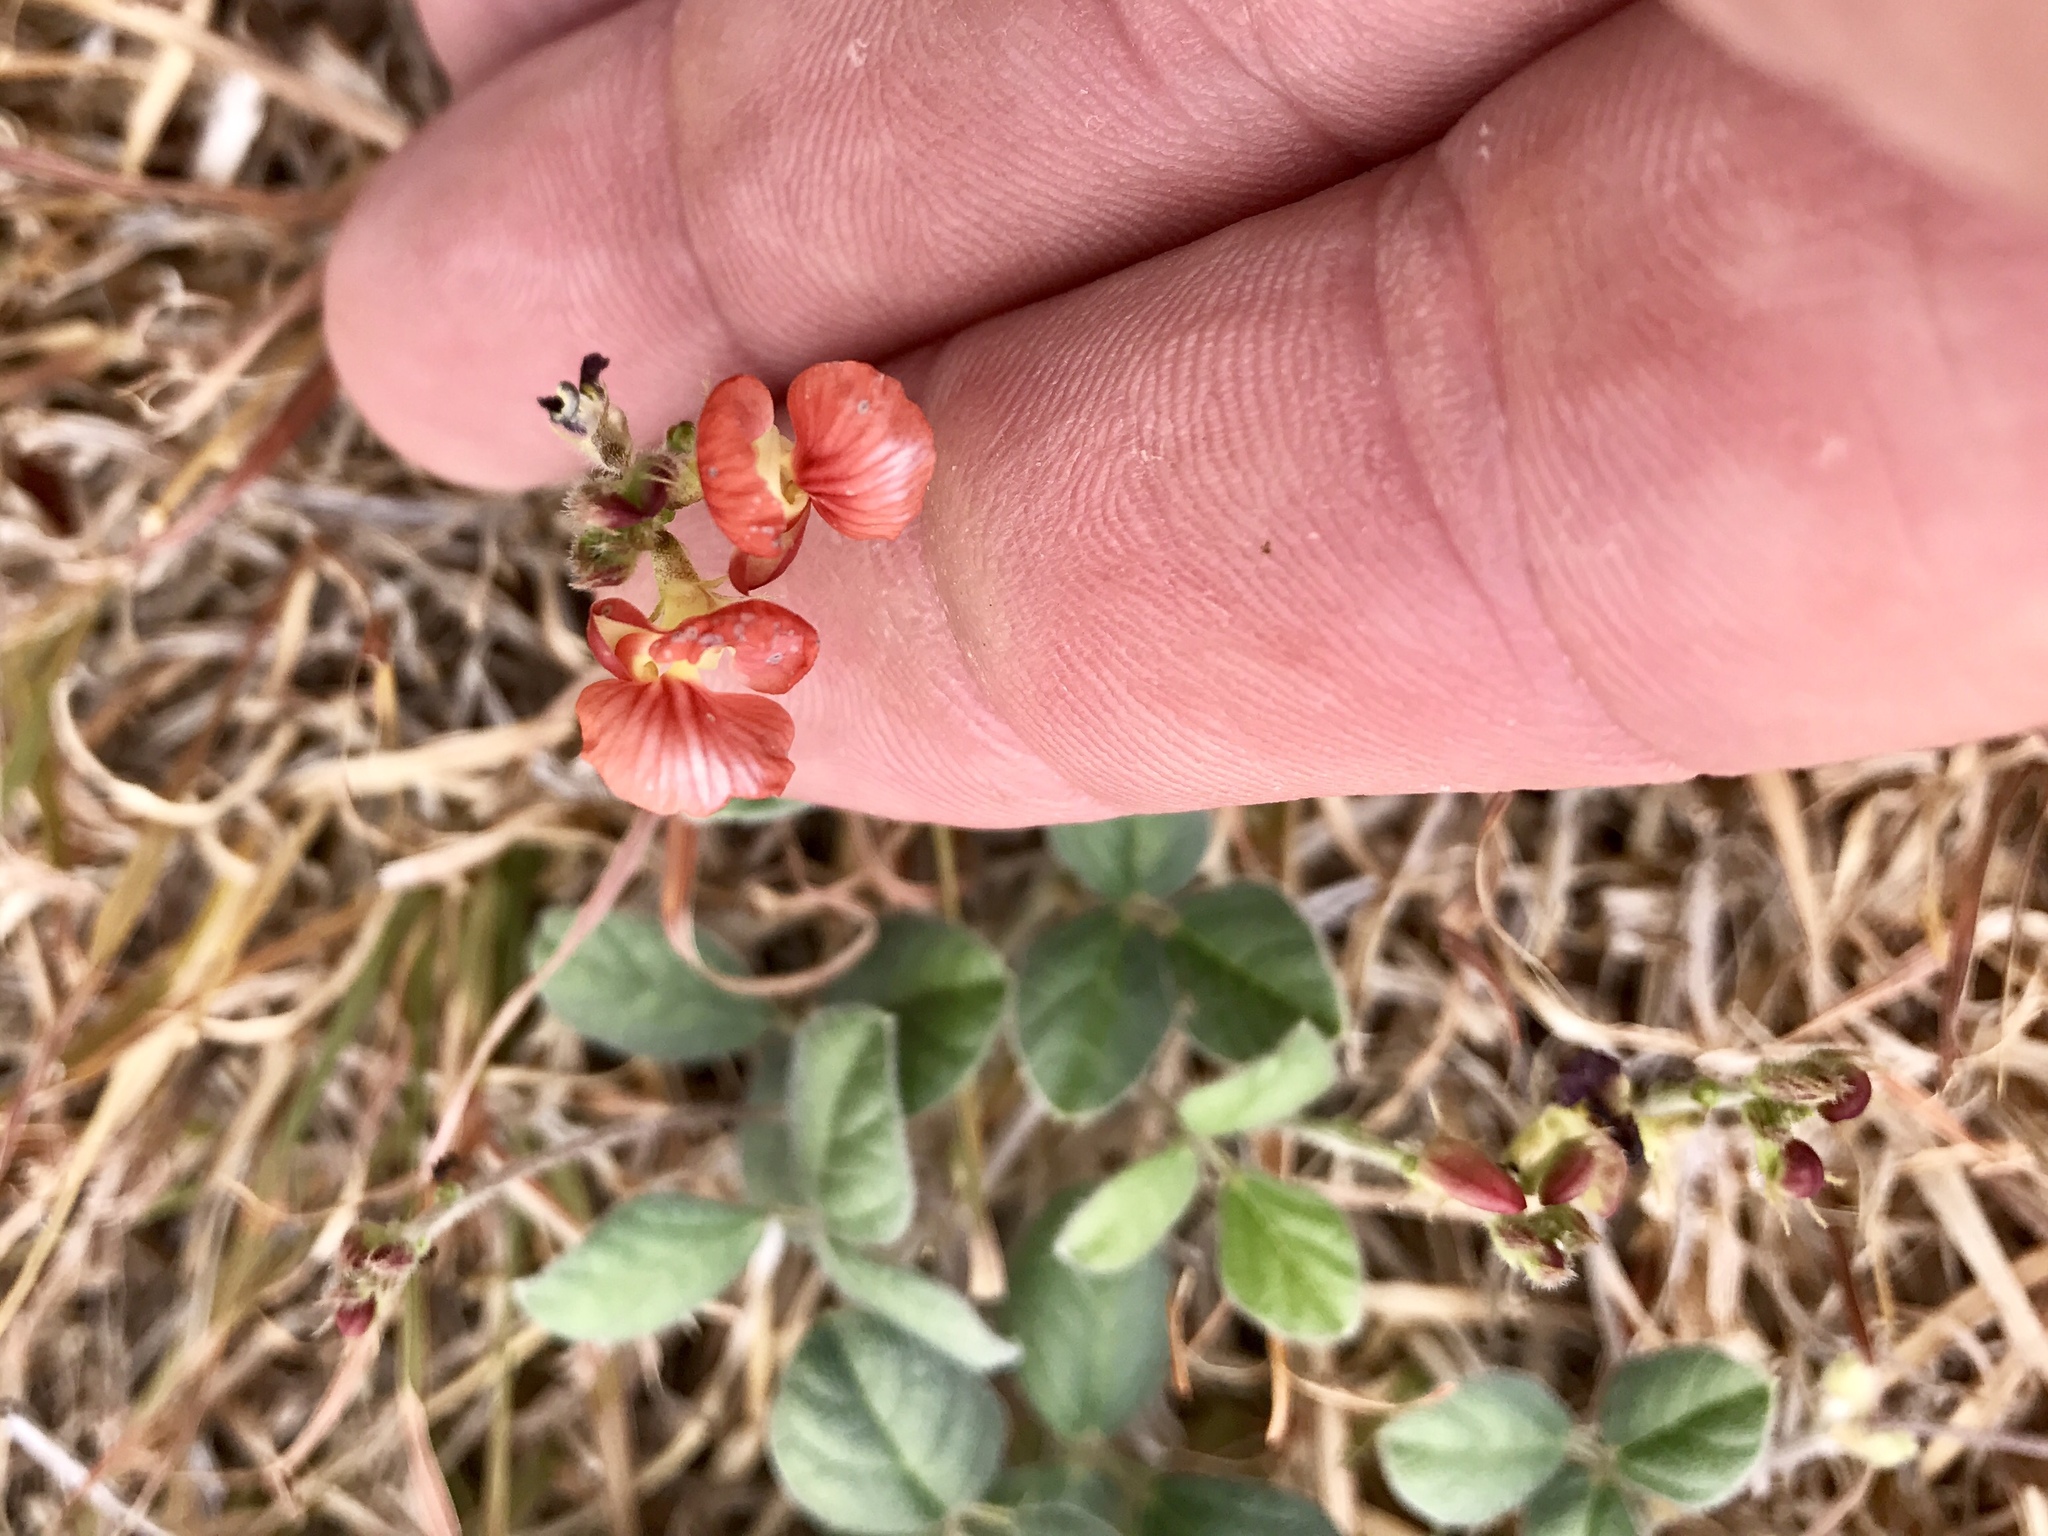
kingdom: Plantae
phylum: Tracheophyta
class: Magnoliopsida
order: Fabales
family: Fabaceae
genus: Macroptilium
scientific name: Macroptilium gibbosifolium
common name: Variableleaf bushbean
